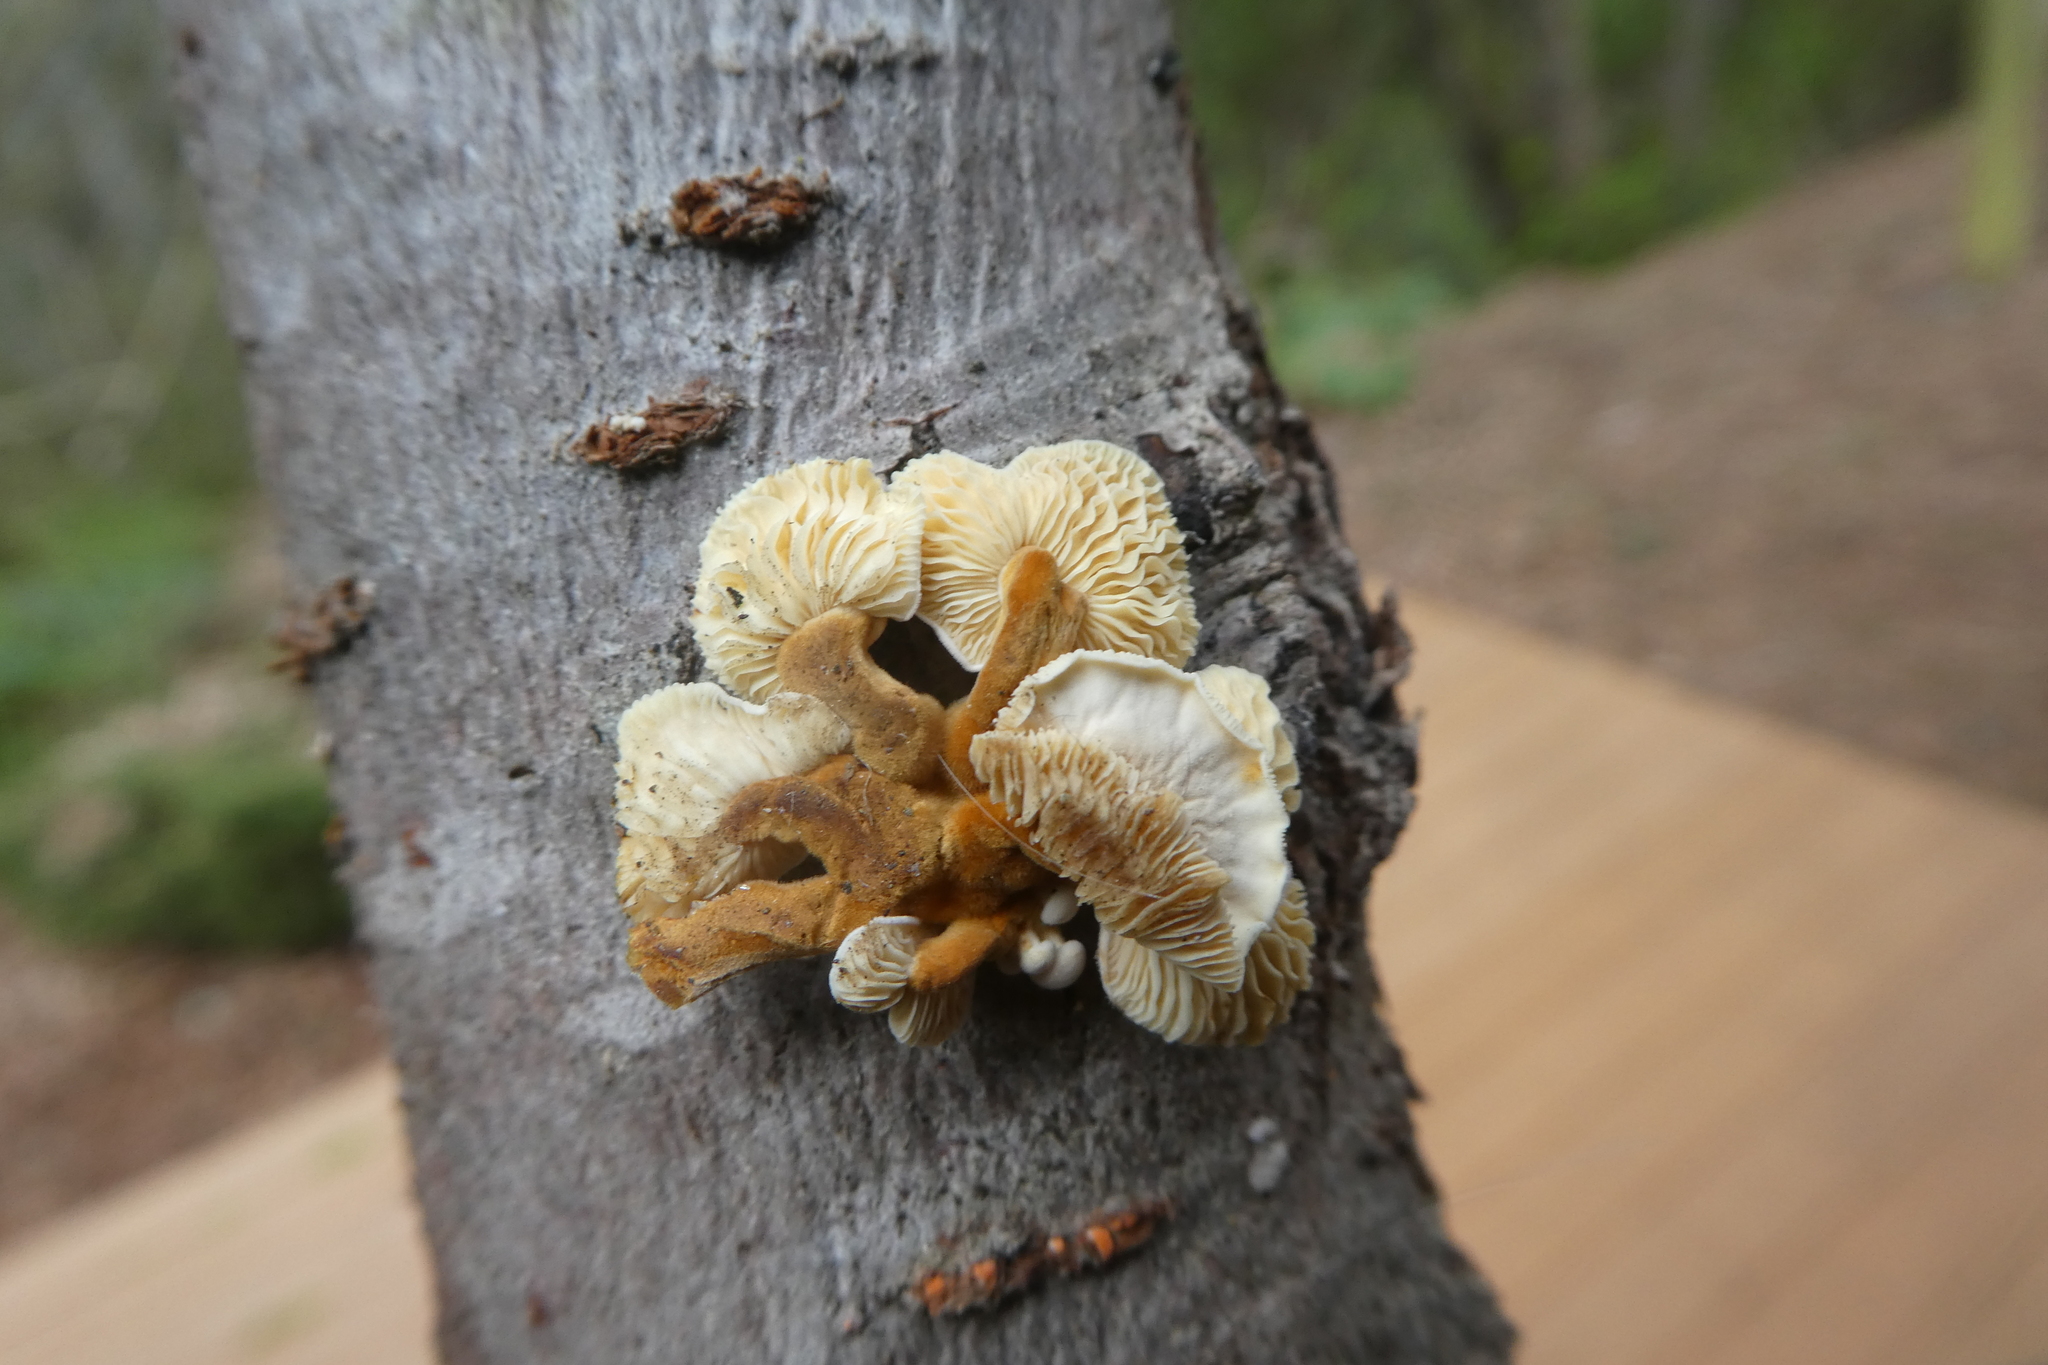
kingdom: Fungi
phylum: Basidiomycota
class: Agaricomycetes
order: Agaricales
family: Physalacriaceae
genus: Flammulina
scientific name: Flammulina
